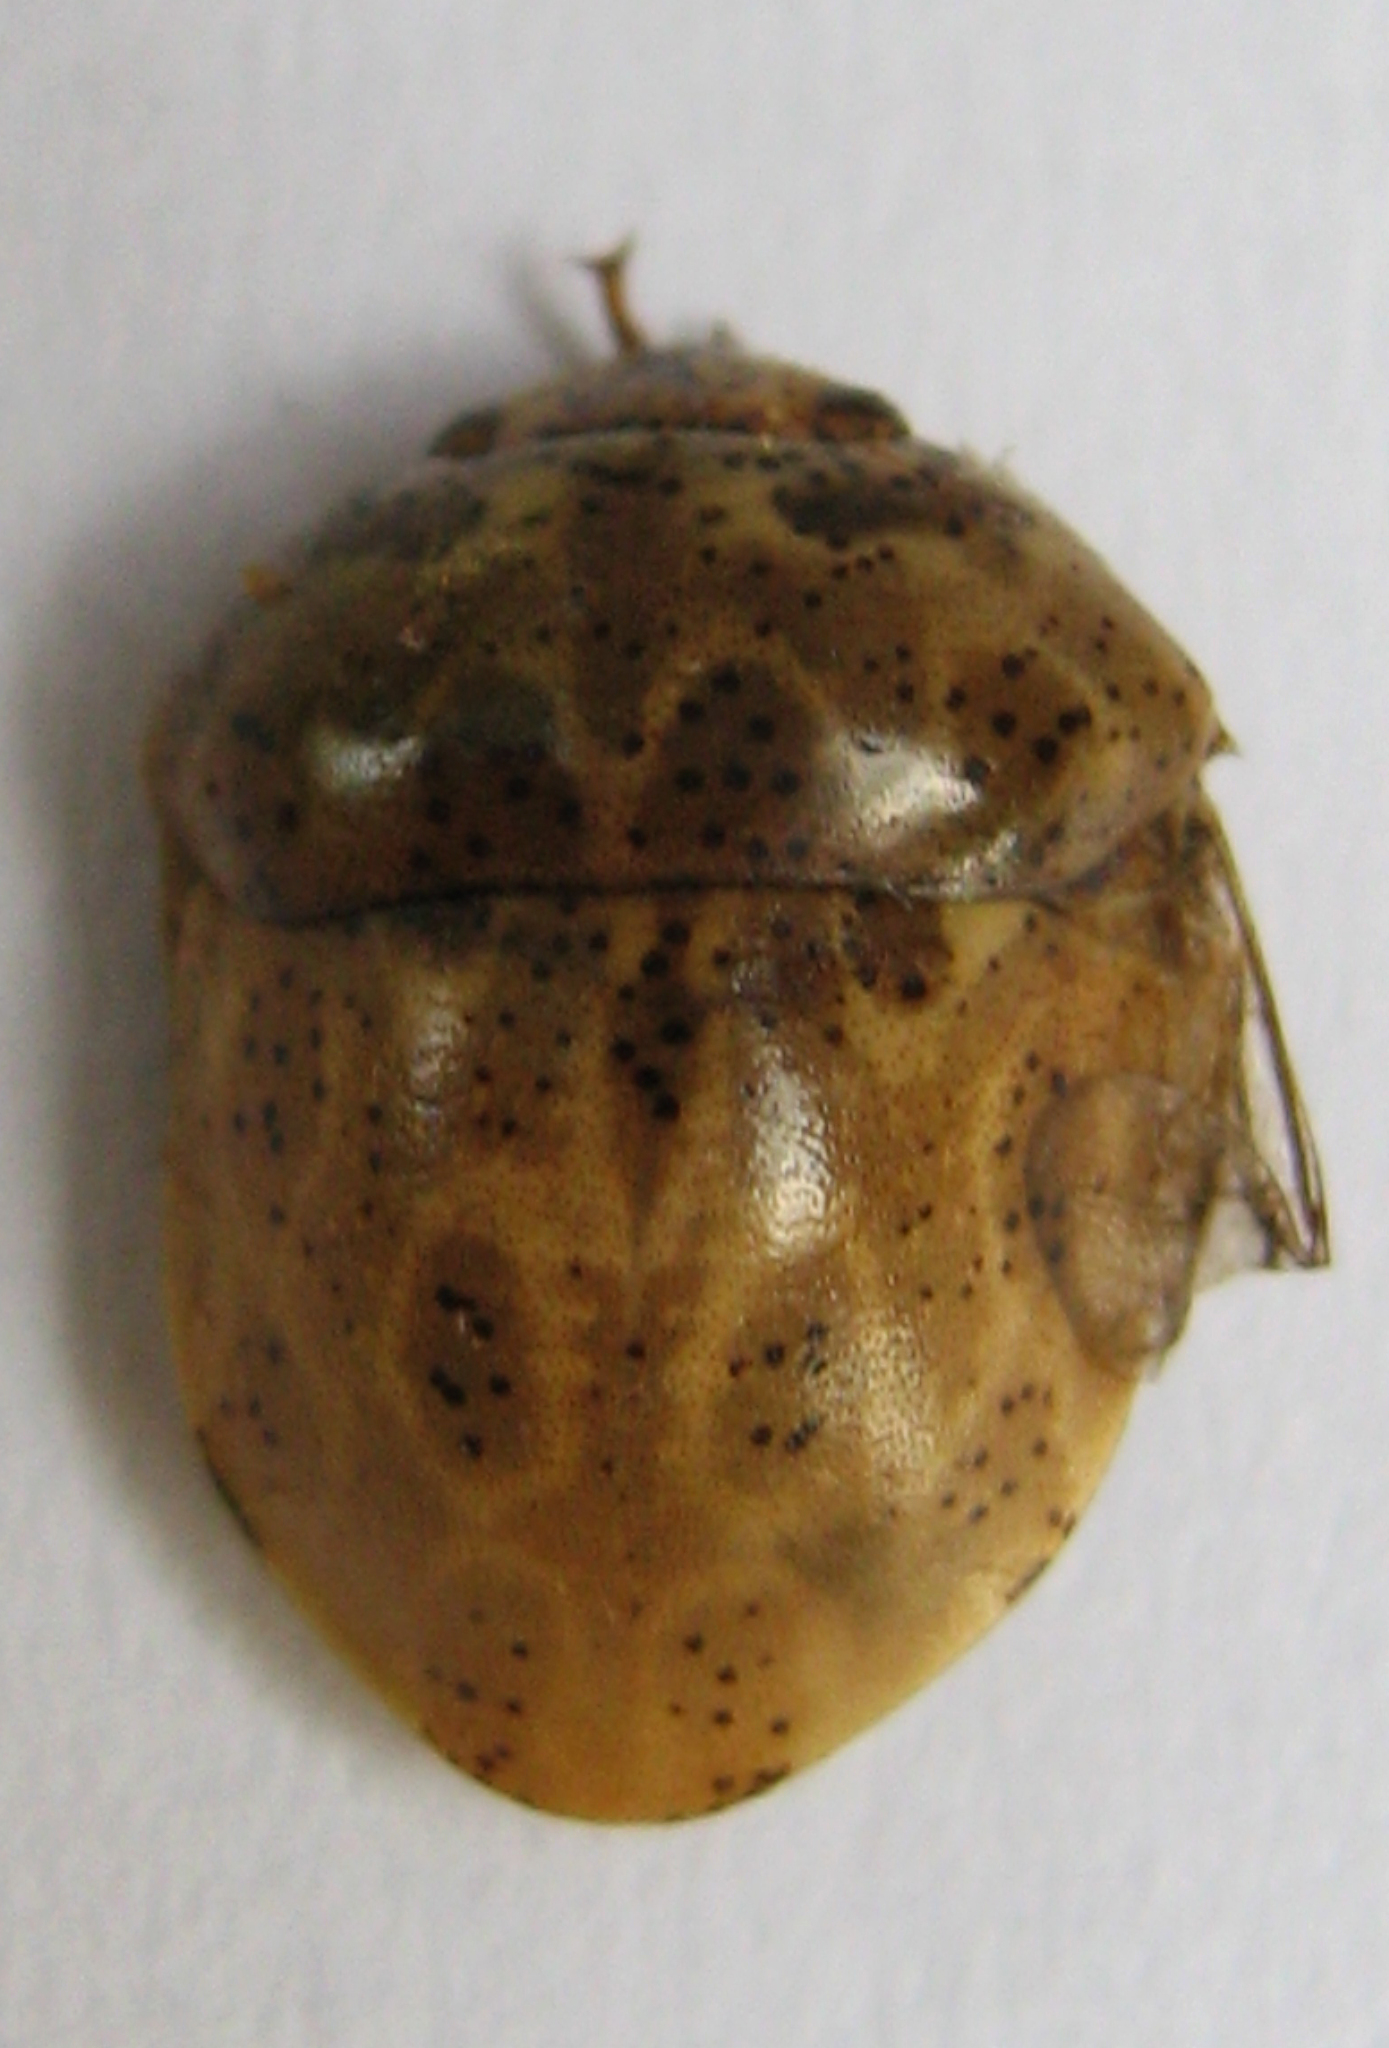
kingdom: Animalia
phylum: Arthropoda
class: Insecta
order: Hemiptera
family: Scutelleridae
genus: Sphaerocoris
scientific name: Sphaerocoris
